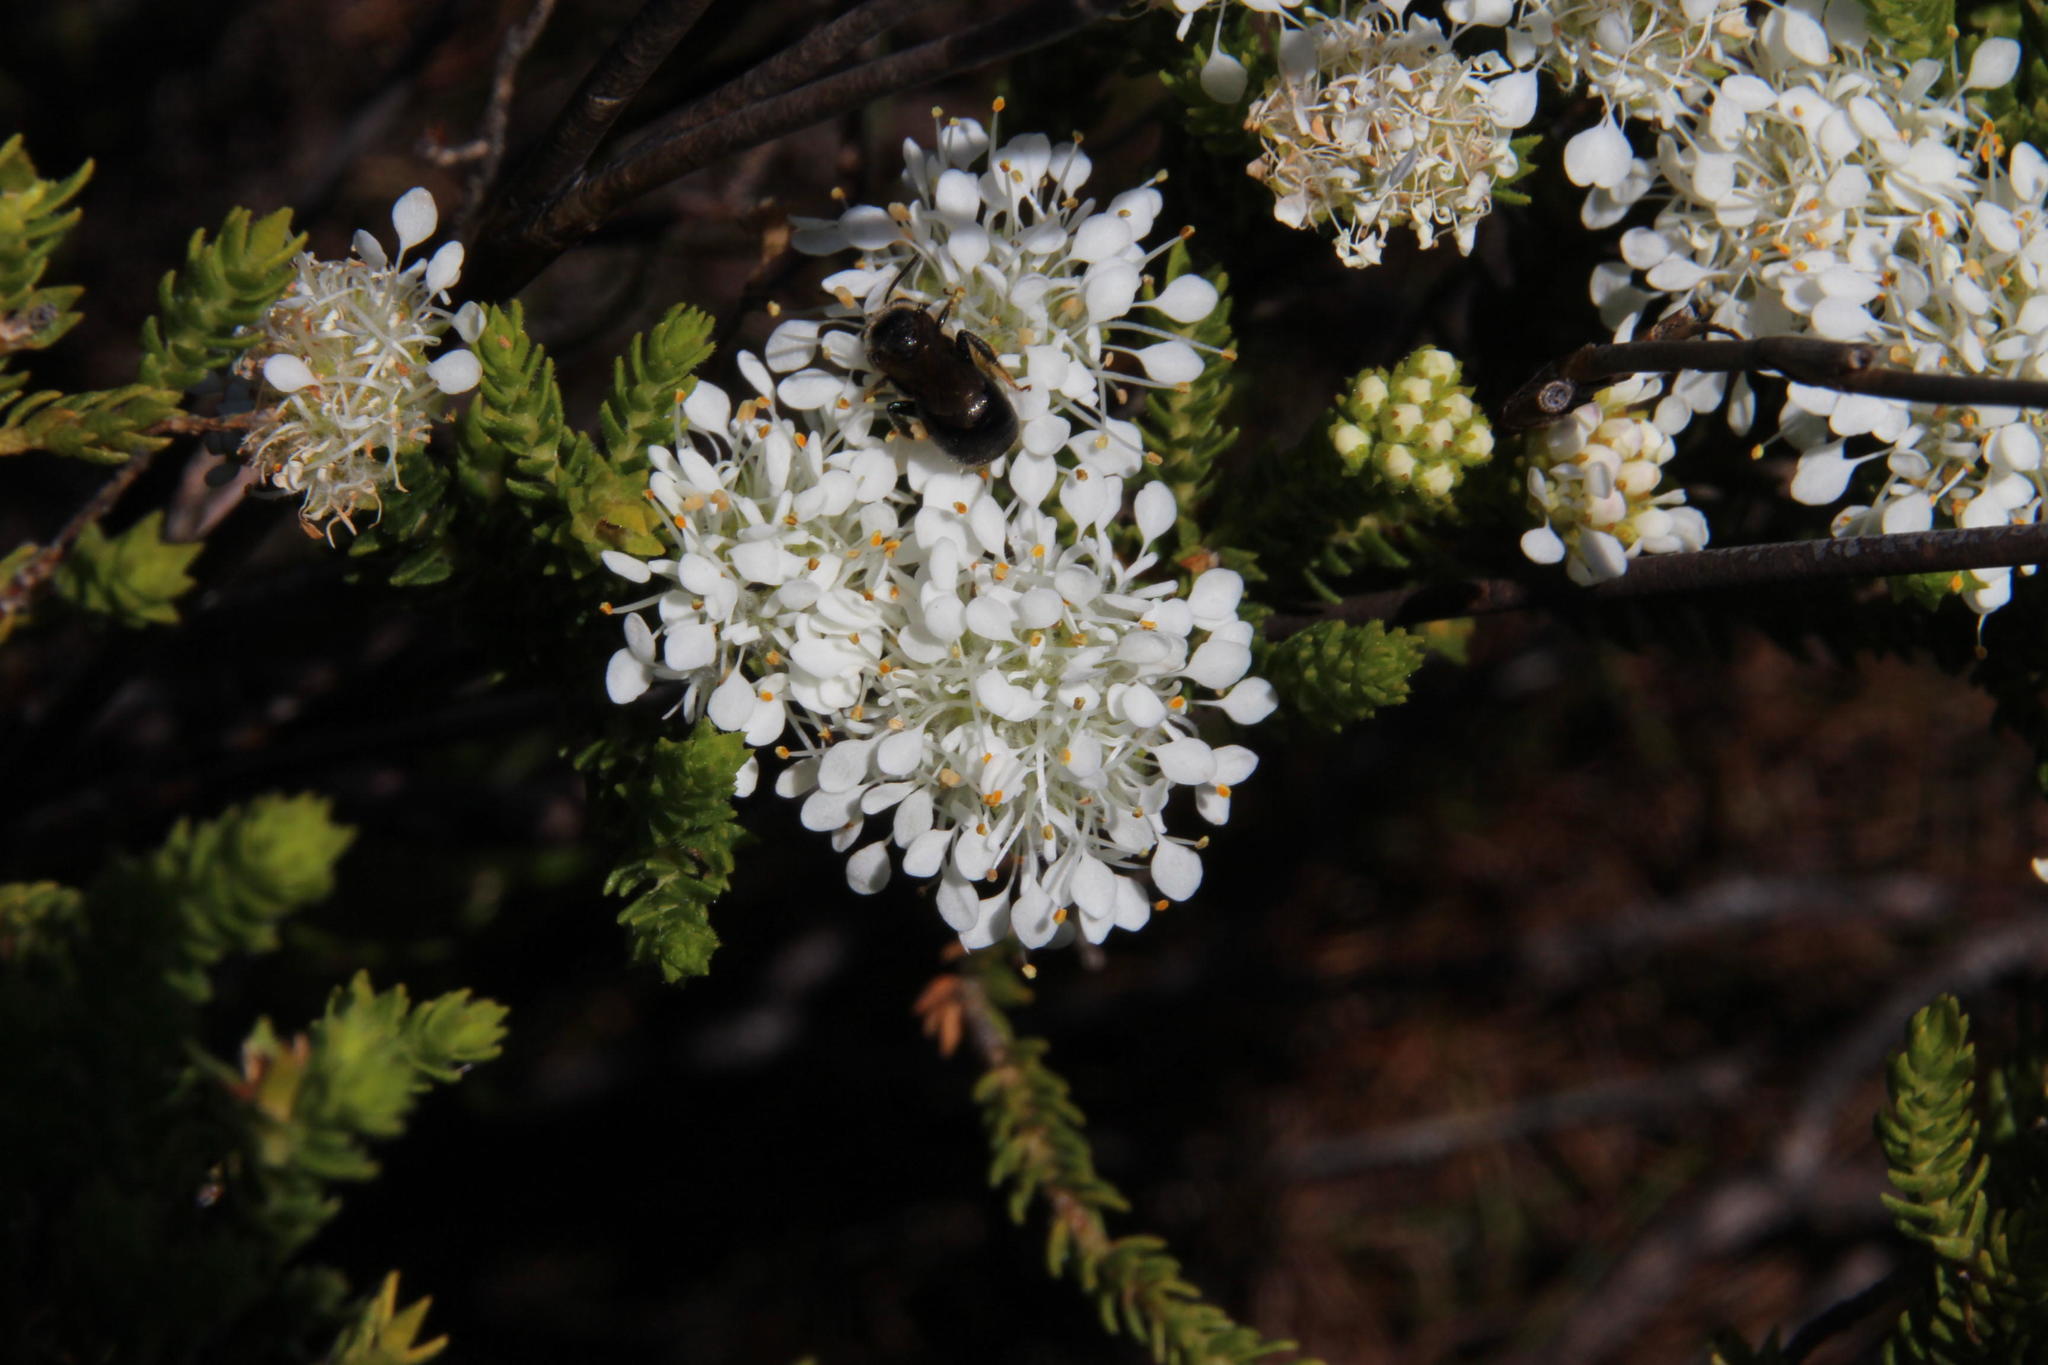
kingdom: Plantae
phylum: Tracheophyta
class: Magnoliopsida
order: Sapindales
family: Rutaceae
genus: Agathosma
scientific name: Agathosma imbricata
